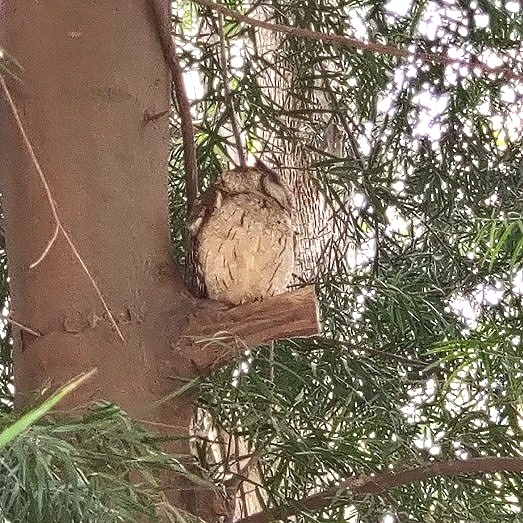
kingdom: Animalia
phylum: Chordata
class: Aves
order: Strigiformes
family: Strigidae
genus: Otus
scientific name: Otus bakkamoena
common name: Indian scops owl
